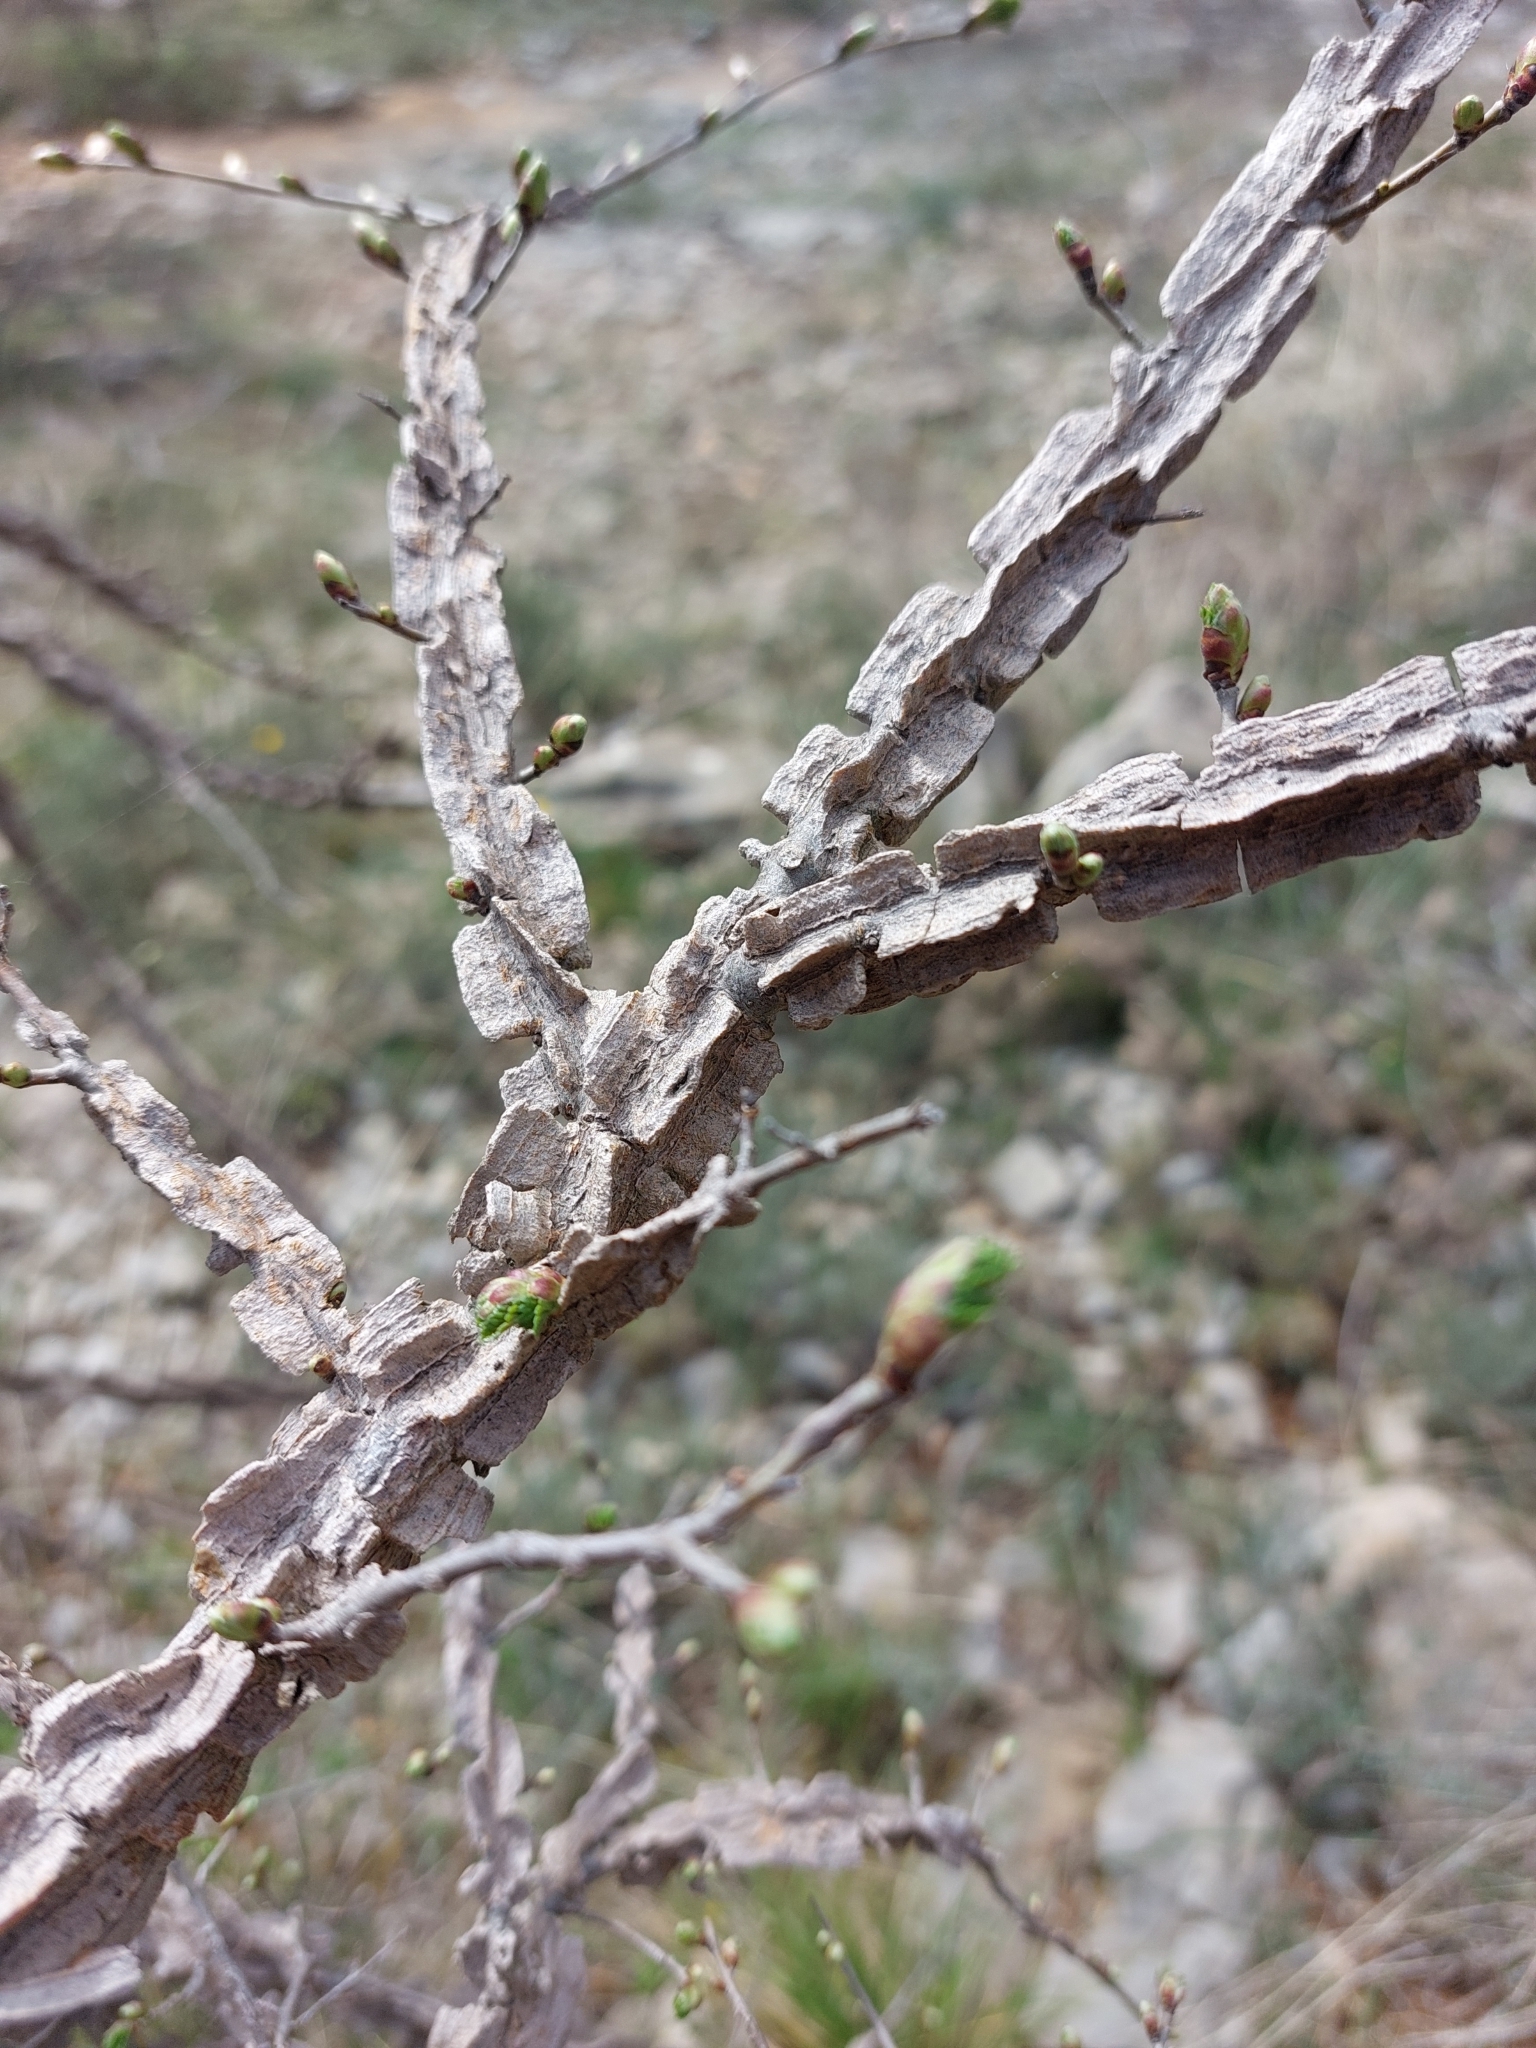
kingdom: Plantae
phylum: Tracheophyta
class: Magnoliopsida
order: Rosales
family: Ulmaceae
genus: Ulmus
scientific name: Ulmus minor
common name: Small-leaved elm
